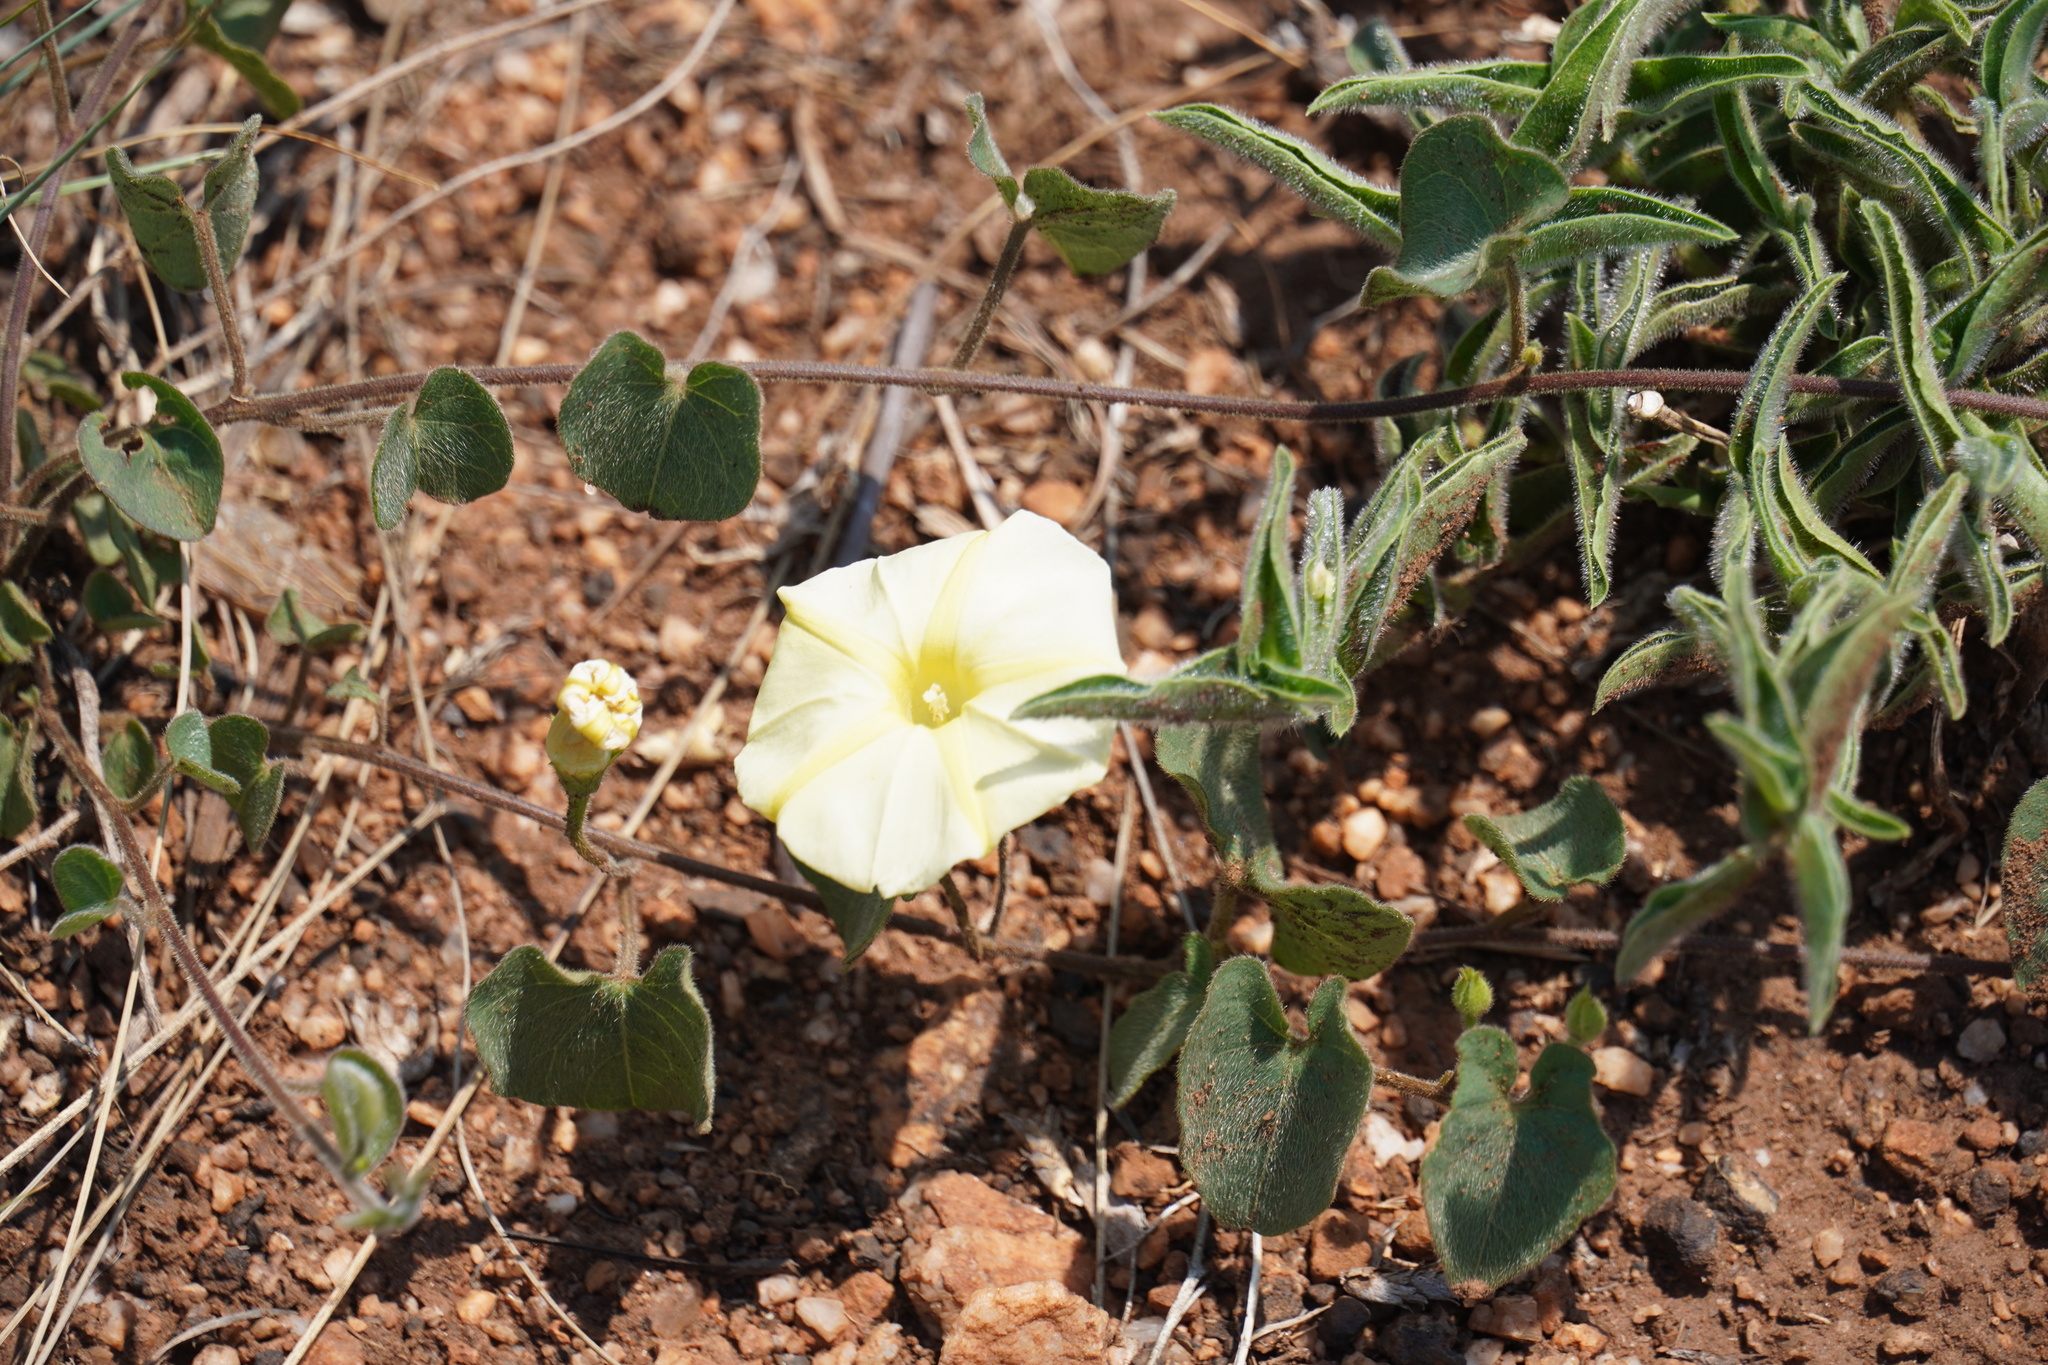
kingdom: Plantae
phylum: Tracheophyta
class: Magnoliopsida
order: Solanales
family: Convolvulaceae
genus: Ipomoea
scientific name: Ipomoea obscura
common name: Obscure morning-glory
